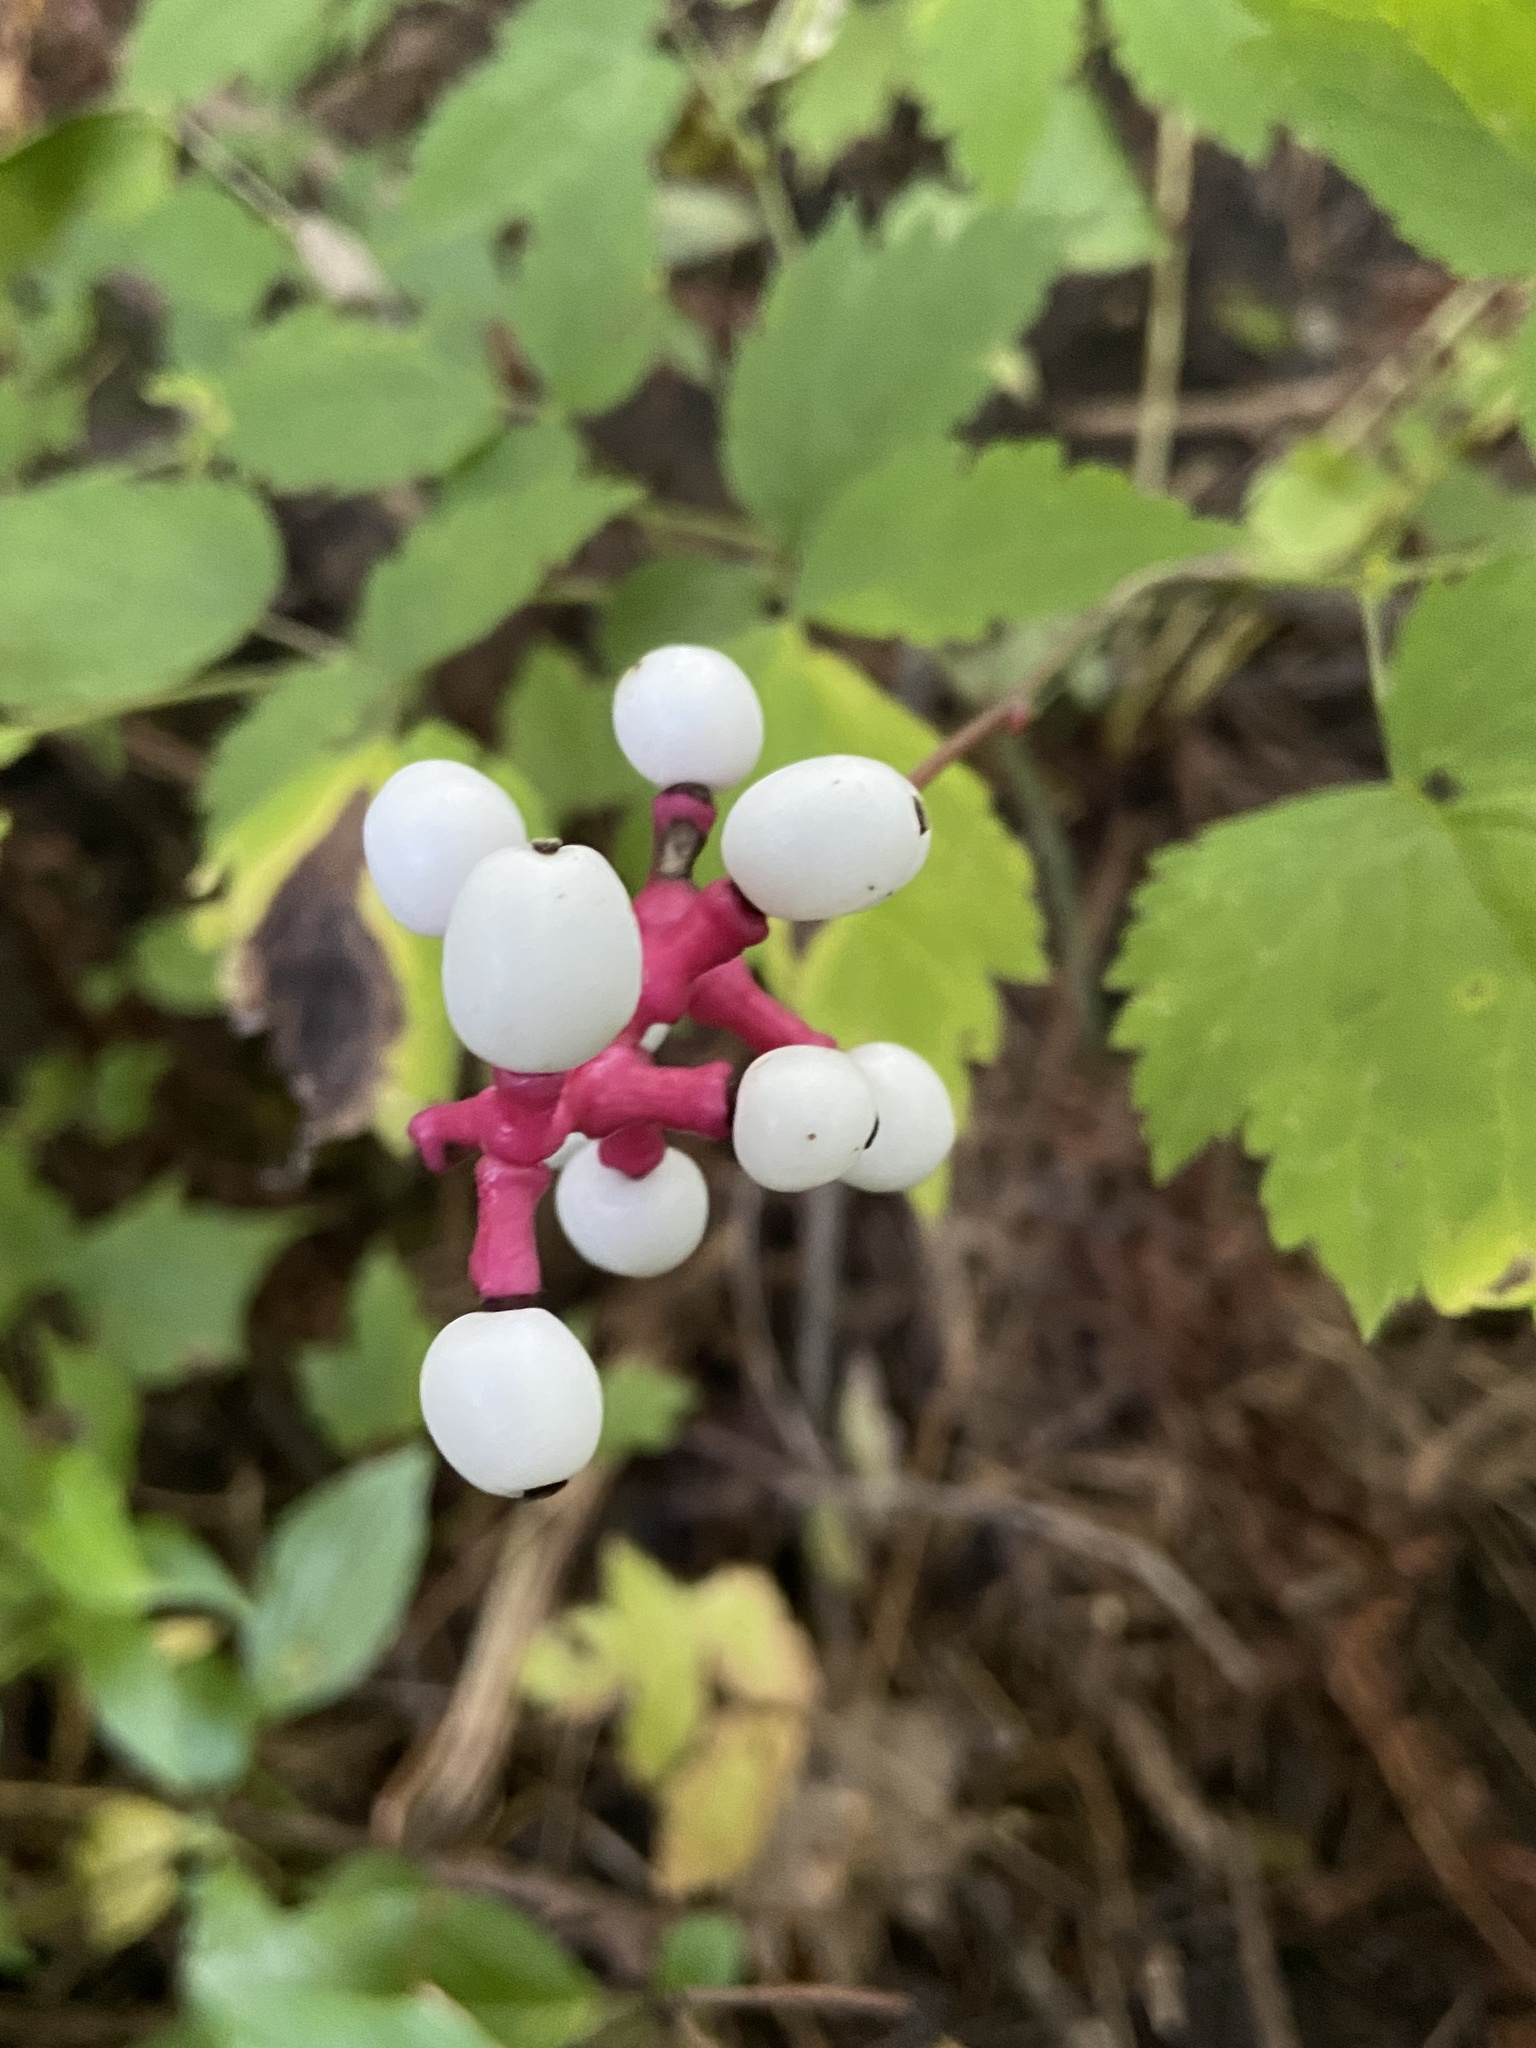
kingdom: Plantae
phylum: Tracheophyta
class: Magnoliopsida
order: Ranunculales
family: Ranunculaceae
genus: Actaea
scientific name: Actaea pachypoda
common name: Doll's-eyes
